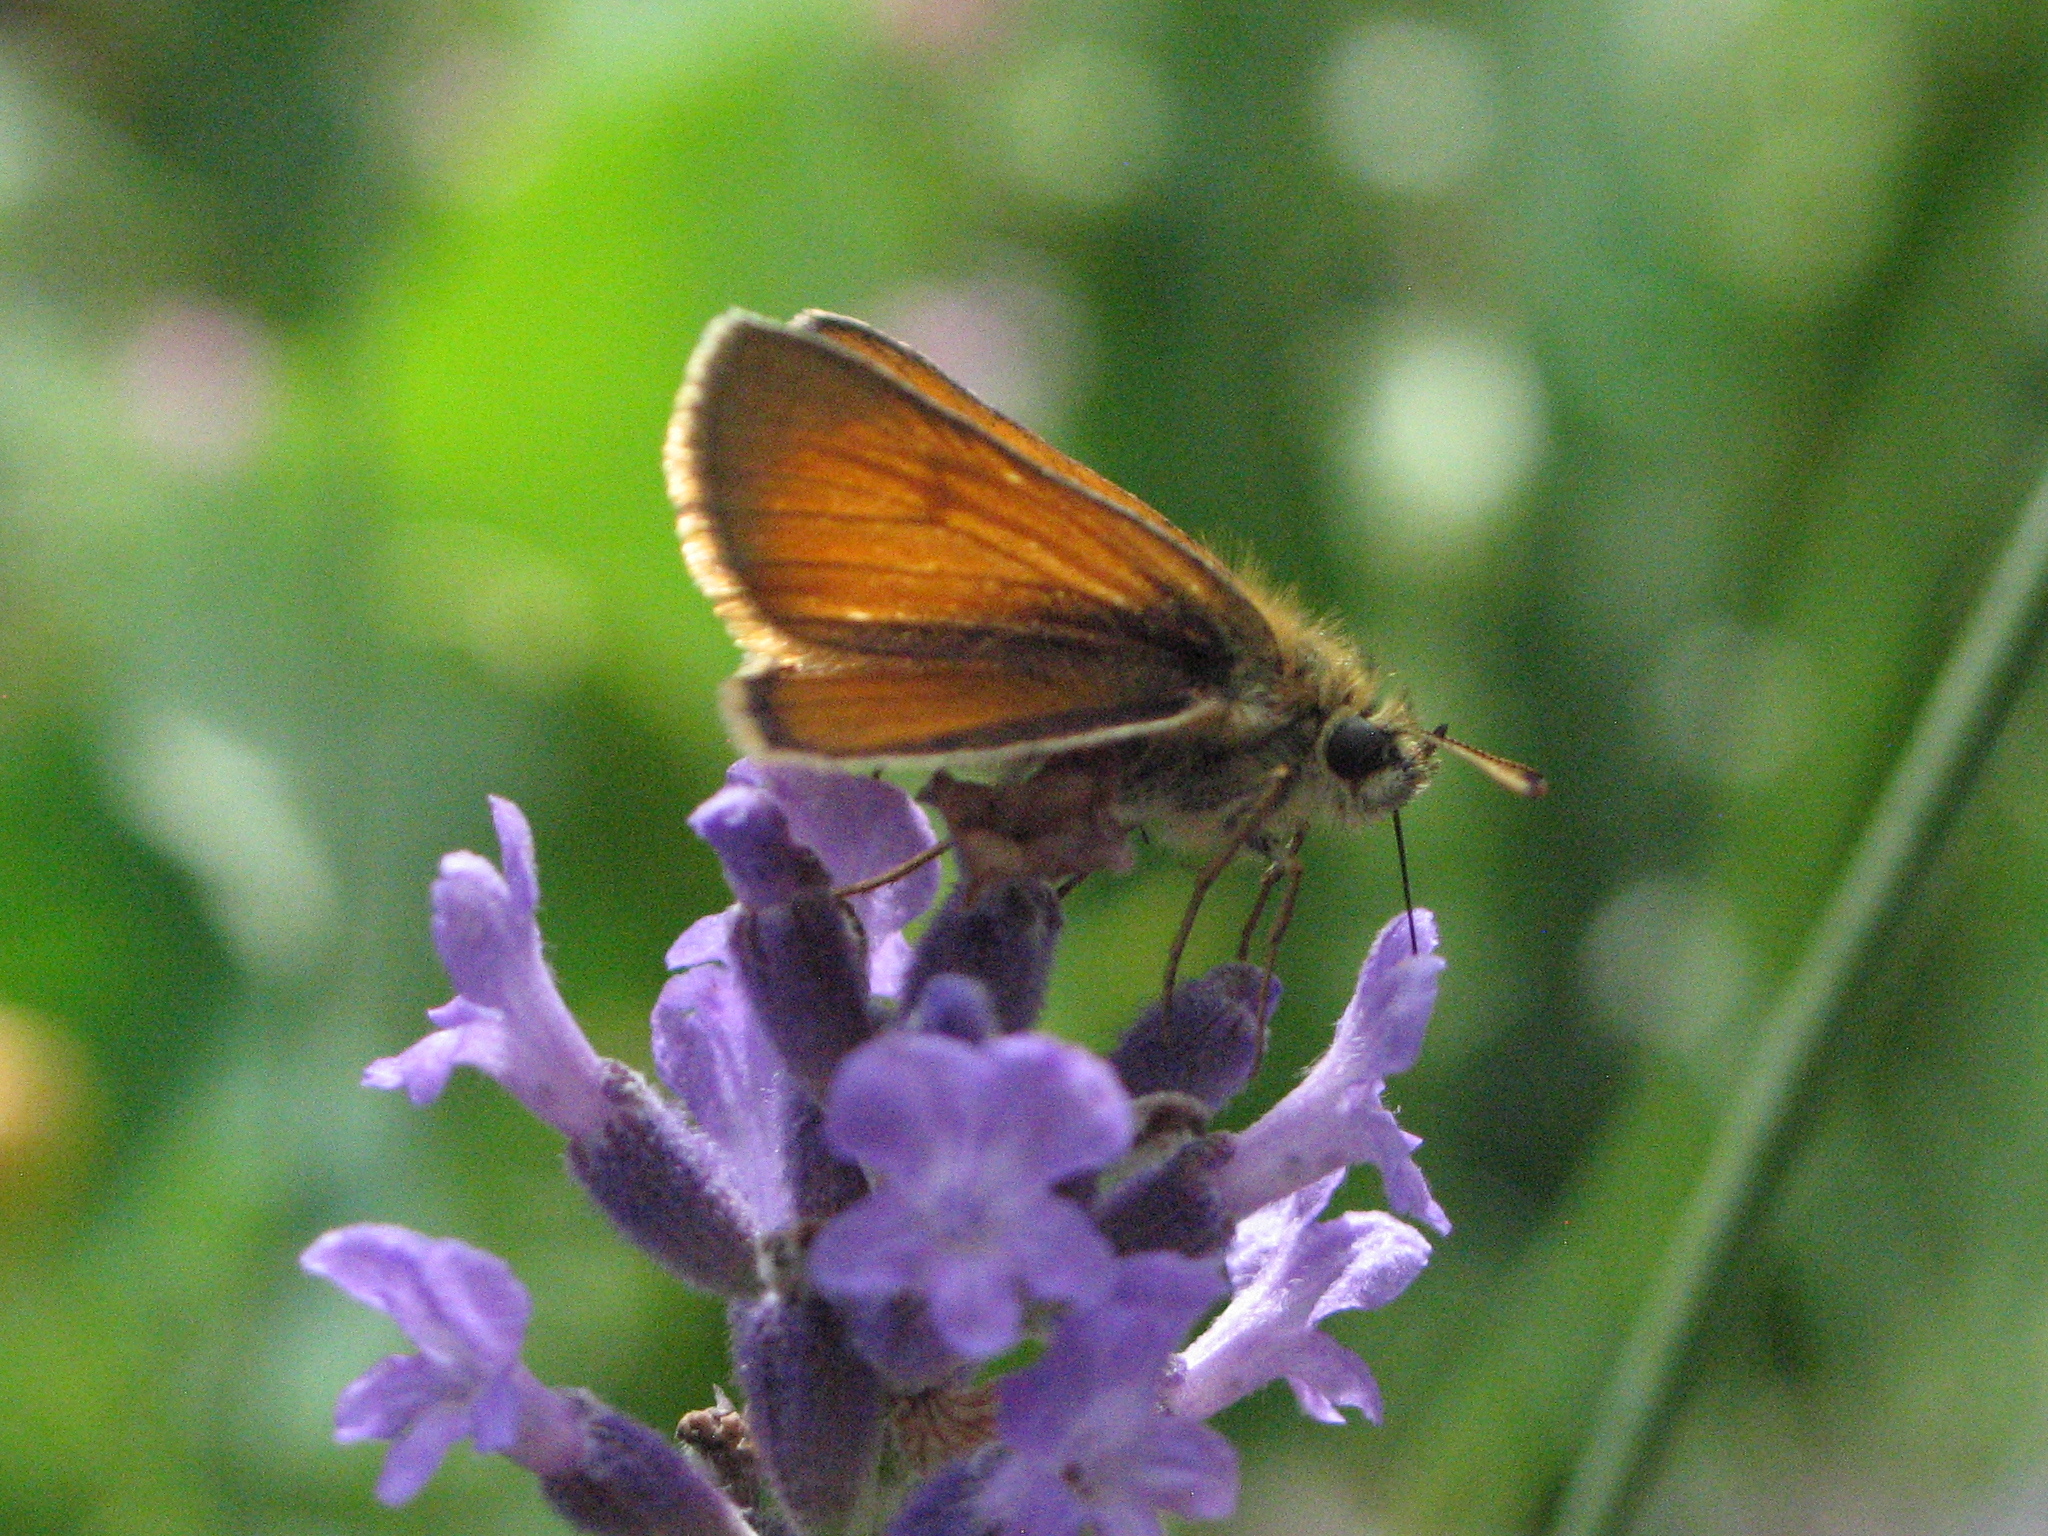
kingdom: Animalia
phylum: Arthropoda
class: Insecta
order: Lepidoptera
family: Hesperiidae
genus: Thymelicus
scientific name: Thymelicus sylvestris
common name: Small skipper
